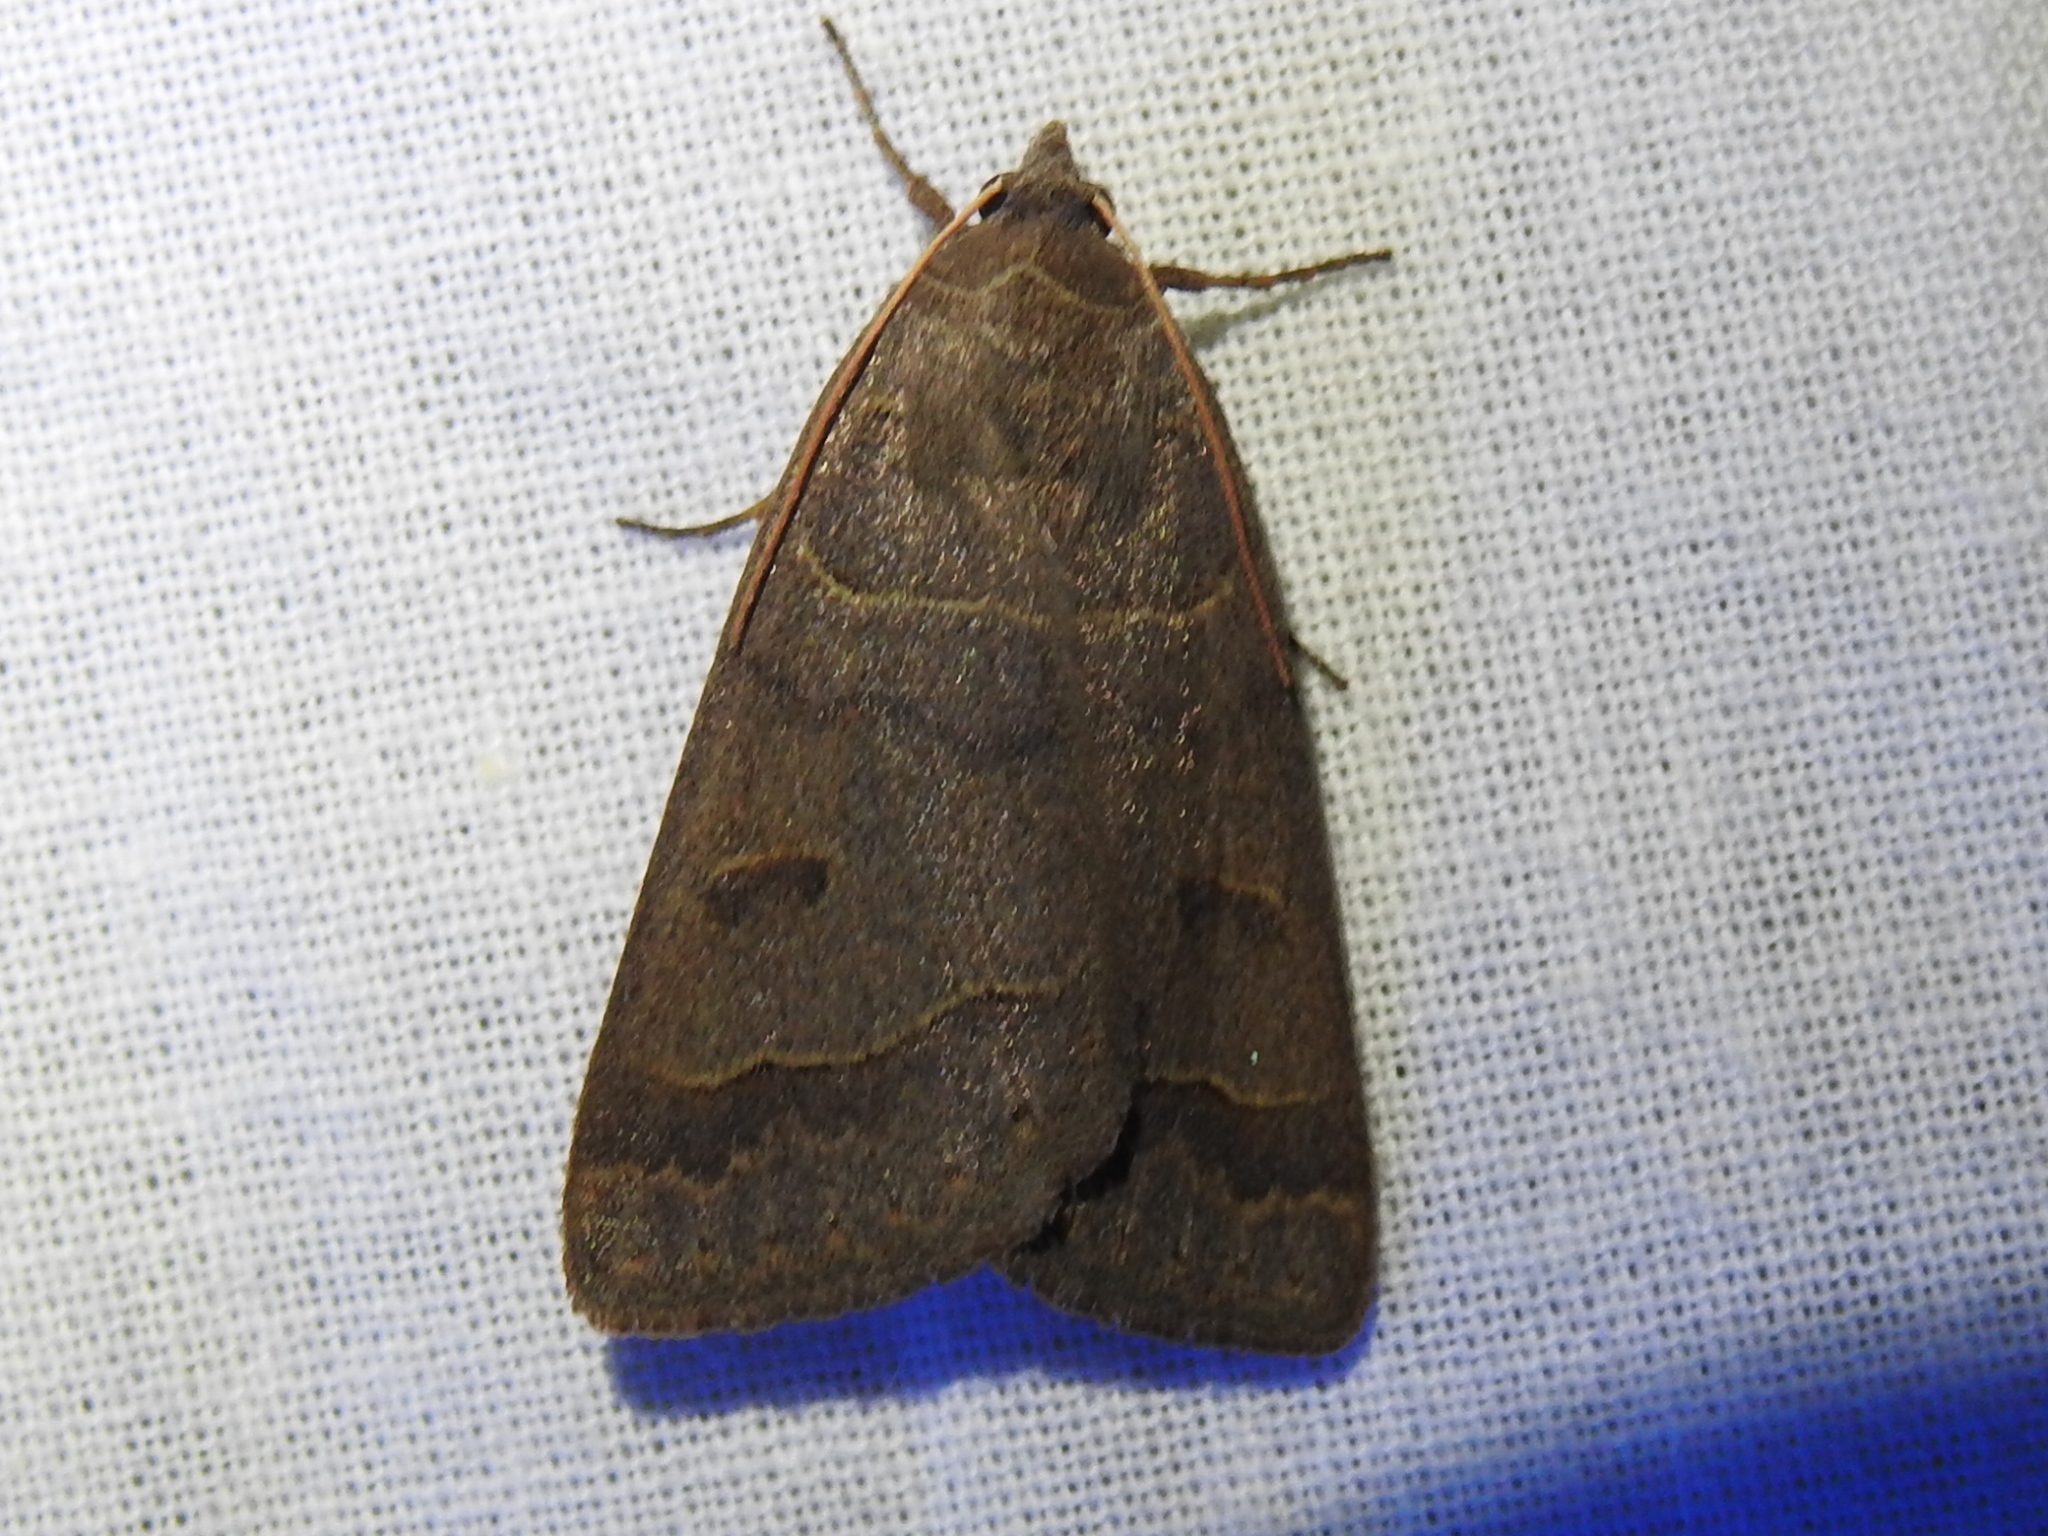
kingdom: Animalia
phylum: Arthropoda
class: Insecta
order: Lepidoptera
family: Erebidae
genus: Phoberia
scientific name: Phoberia atomaris
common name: Common oak moth
